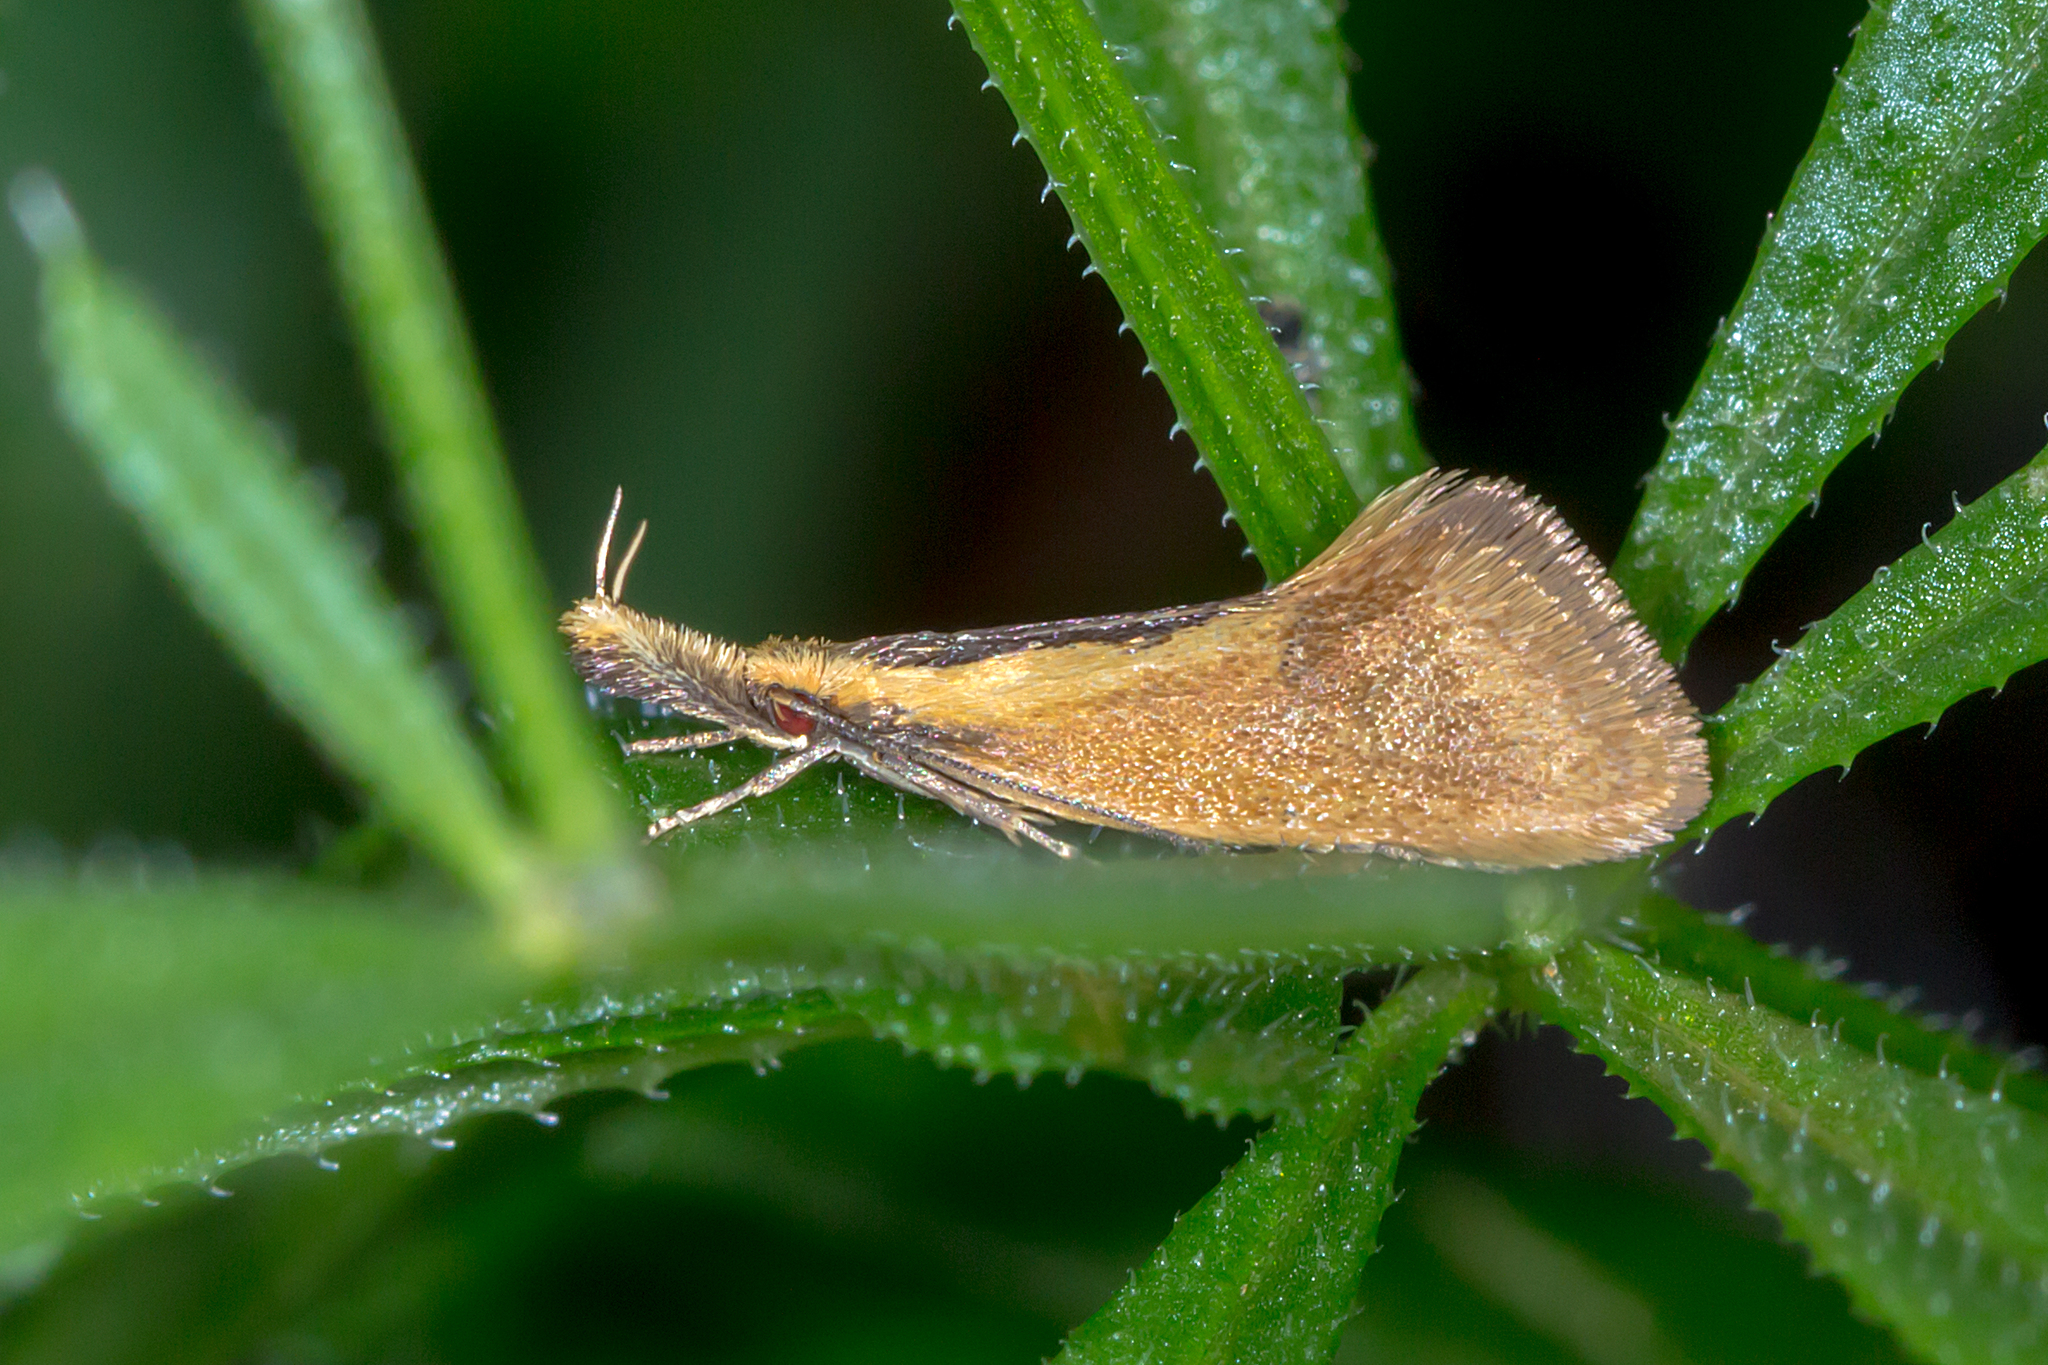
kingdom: Animalia
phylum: Arthropoda
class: Insecta
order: Lepidoptera
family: Oecophoridae
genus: Thema
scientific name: Thema psammoxantha
